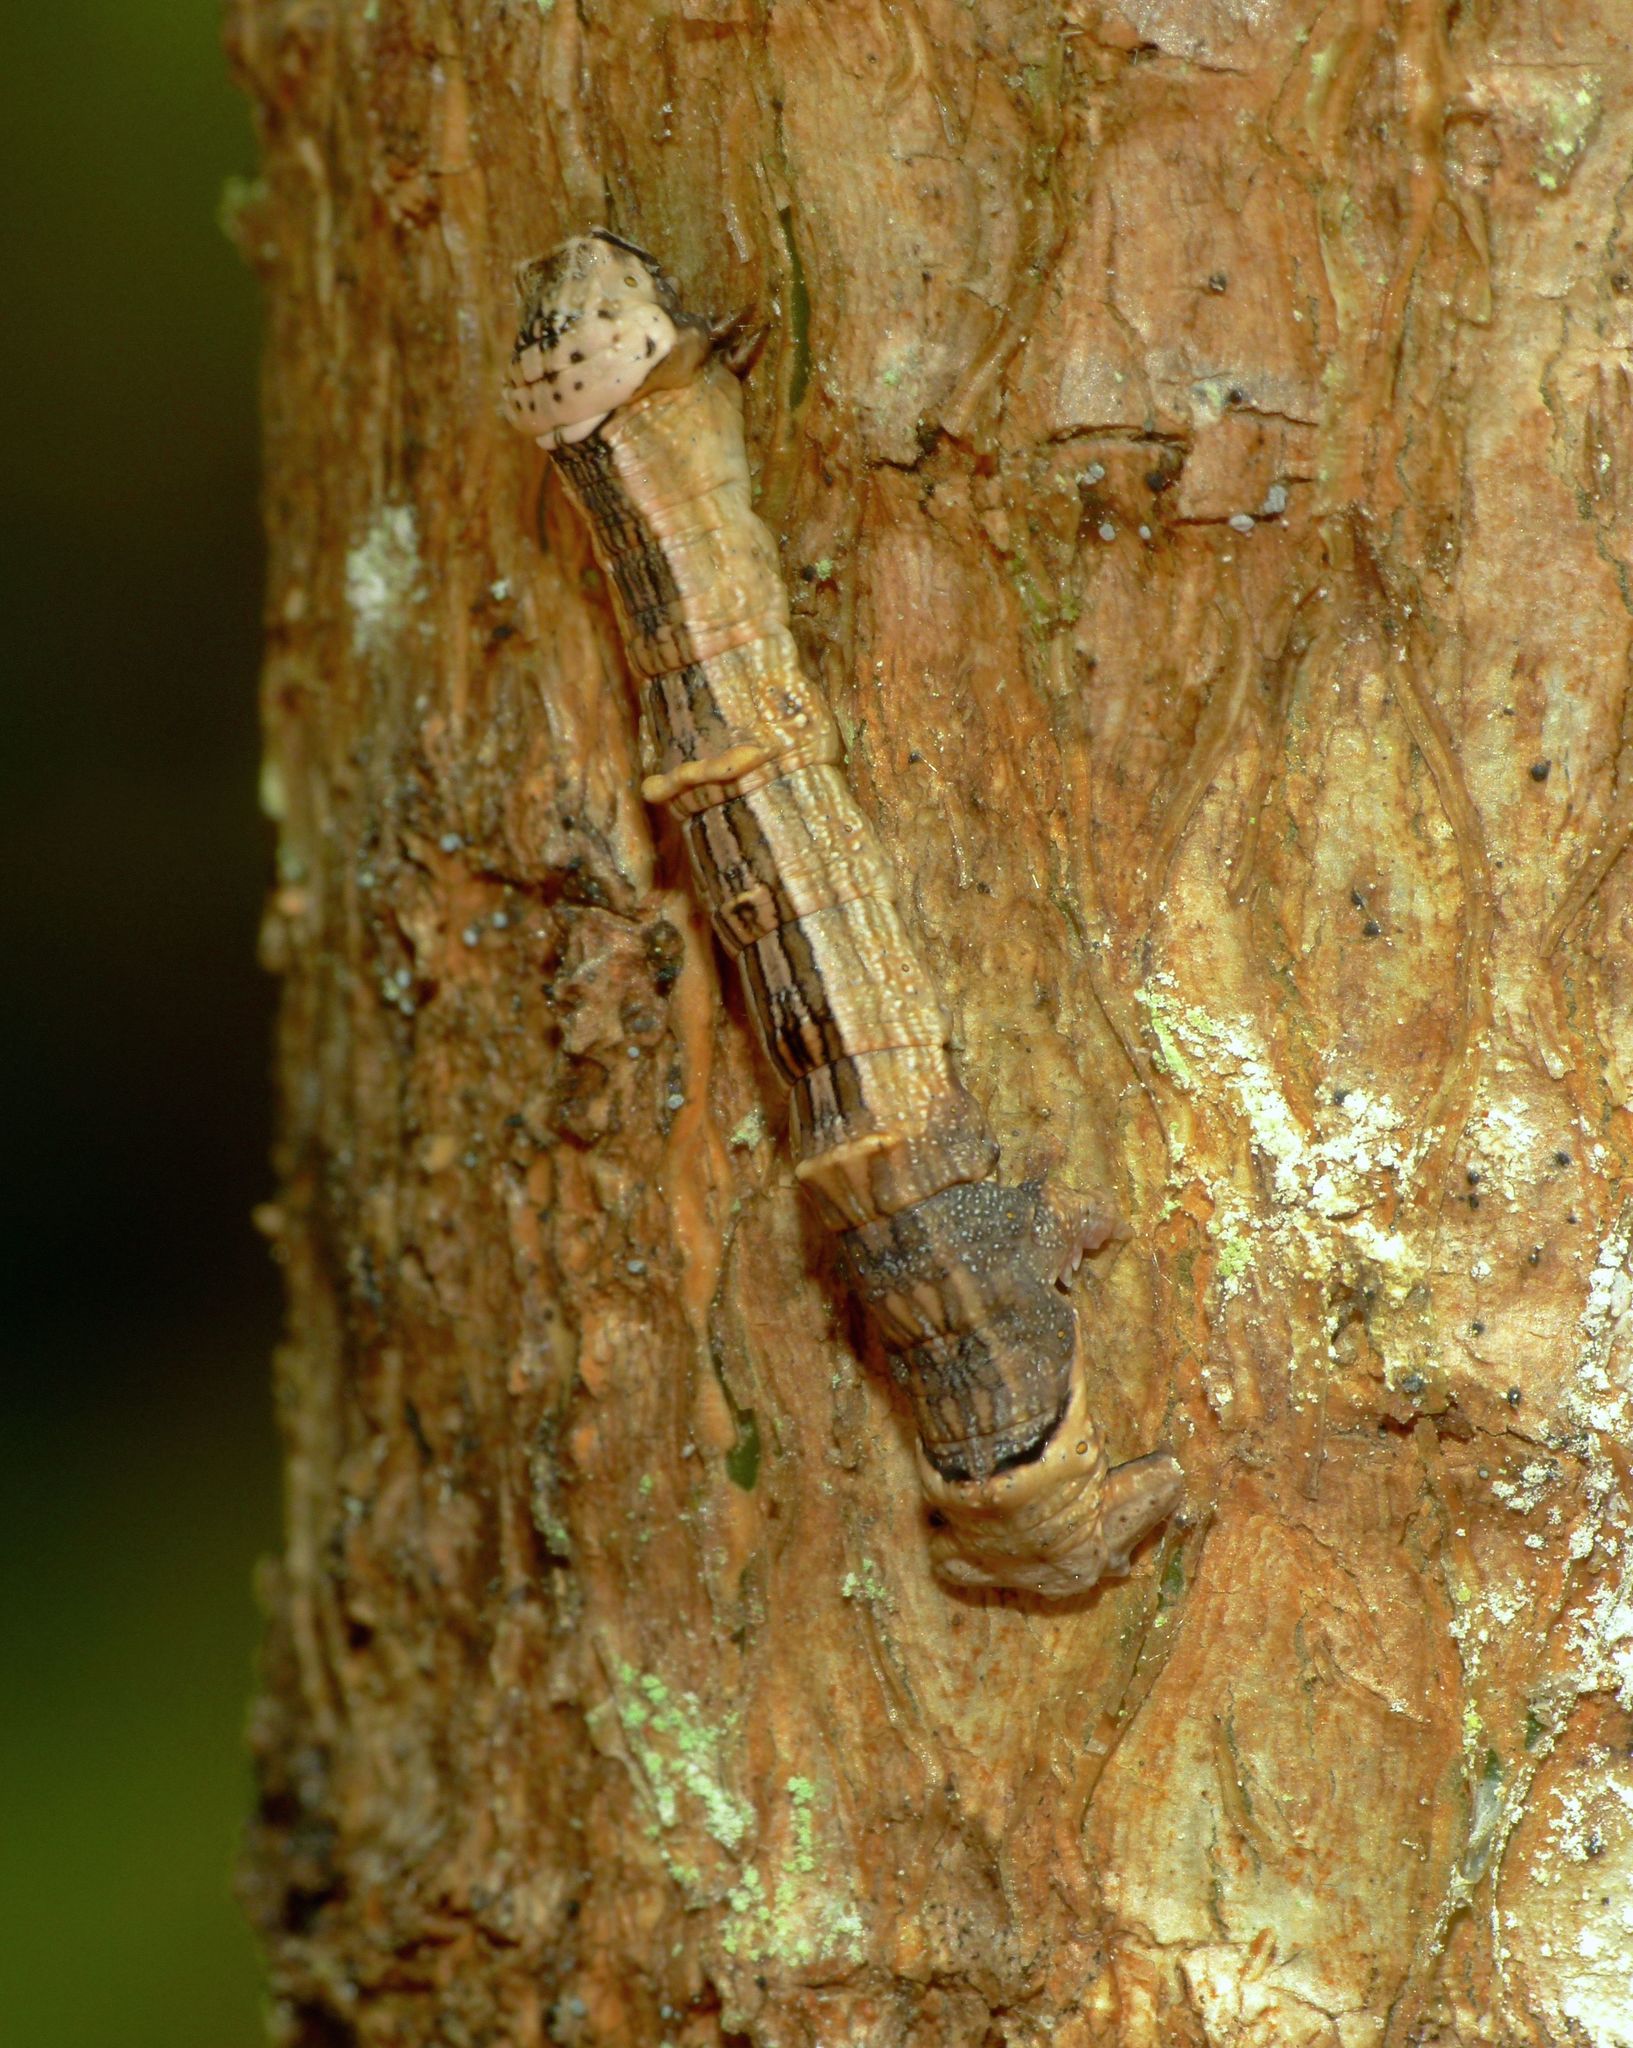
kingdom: Animalia
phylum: Arthropoda
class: Insecta
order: Lepidoptera
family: Geometridae
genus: Declana
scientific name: Declana
